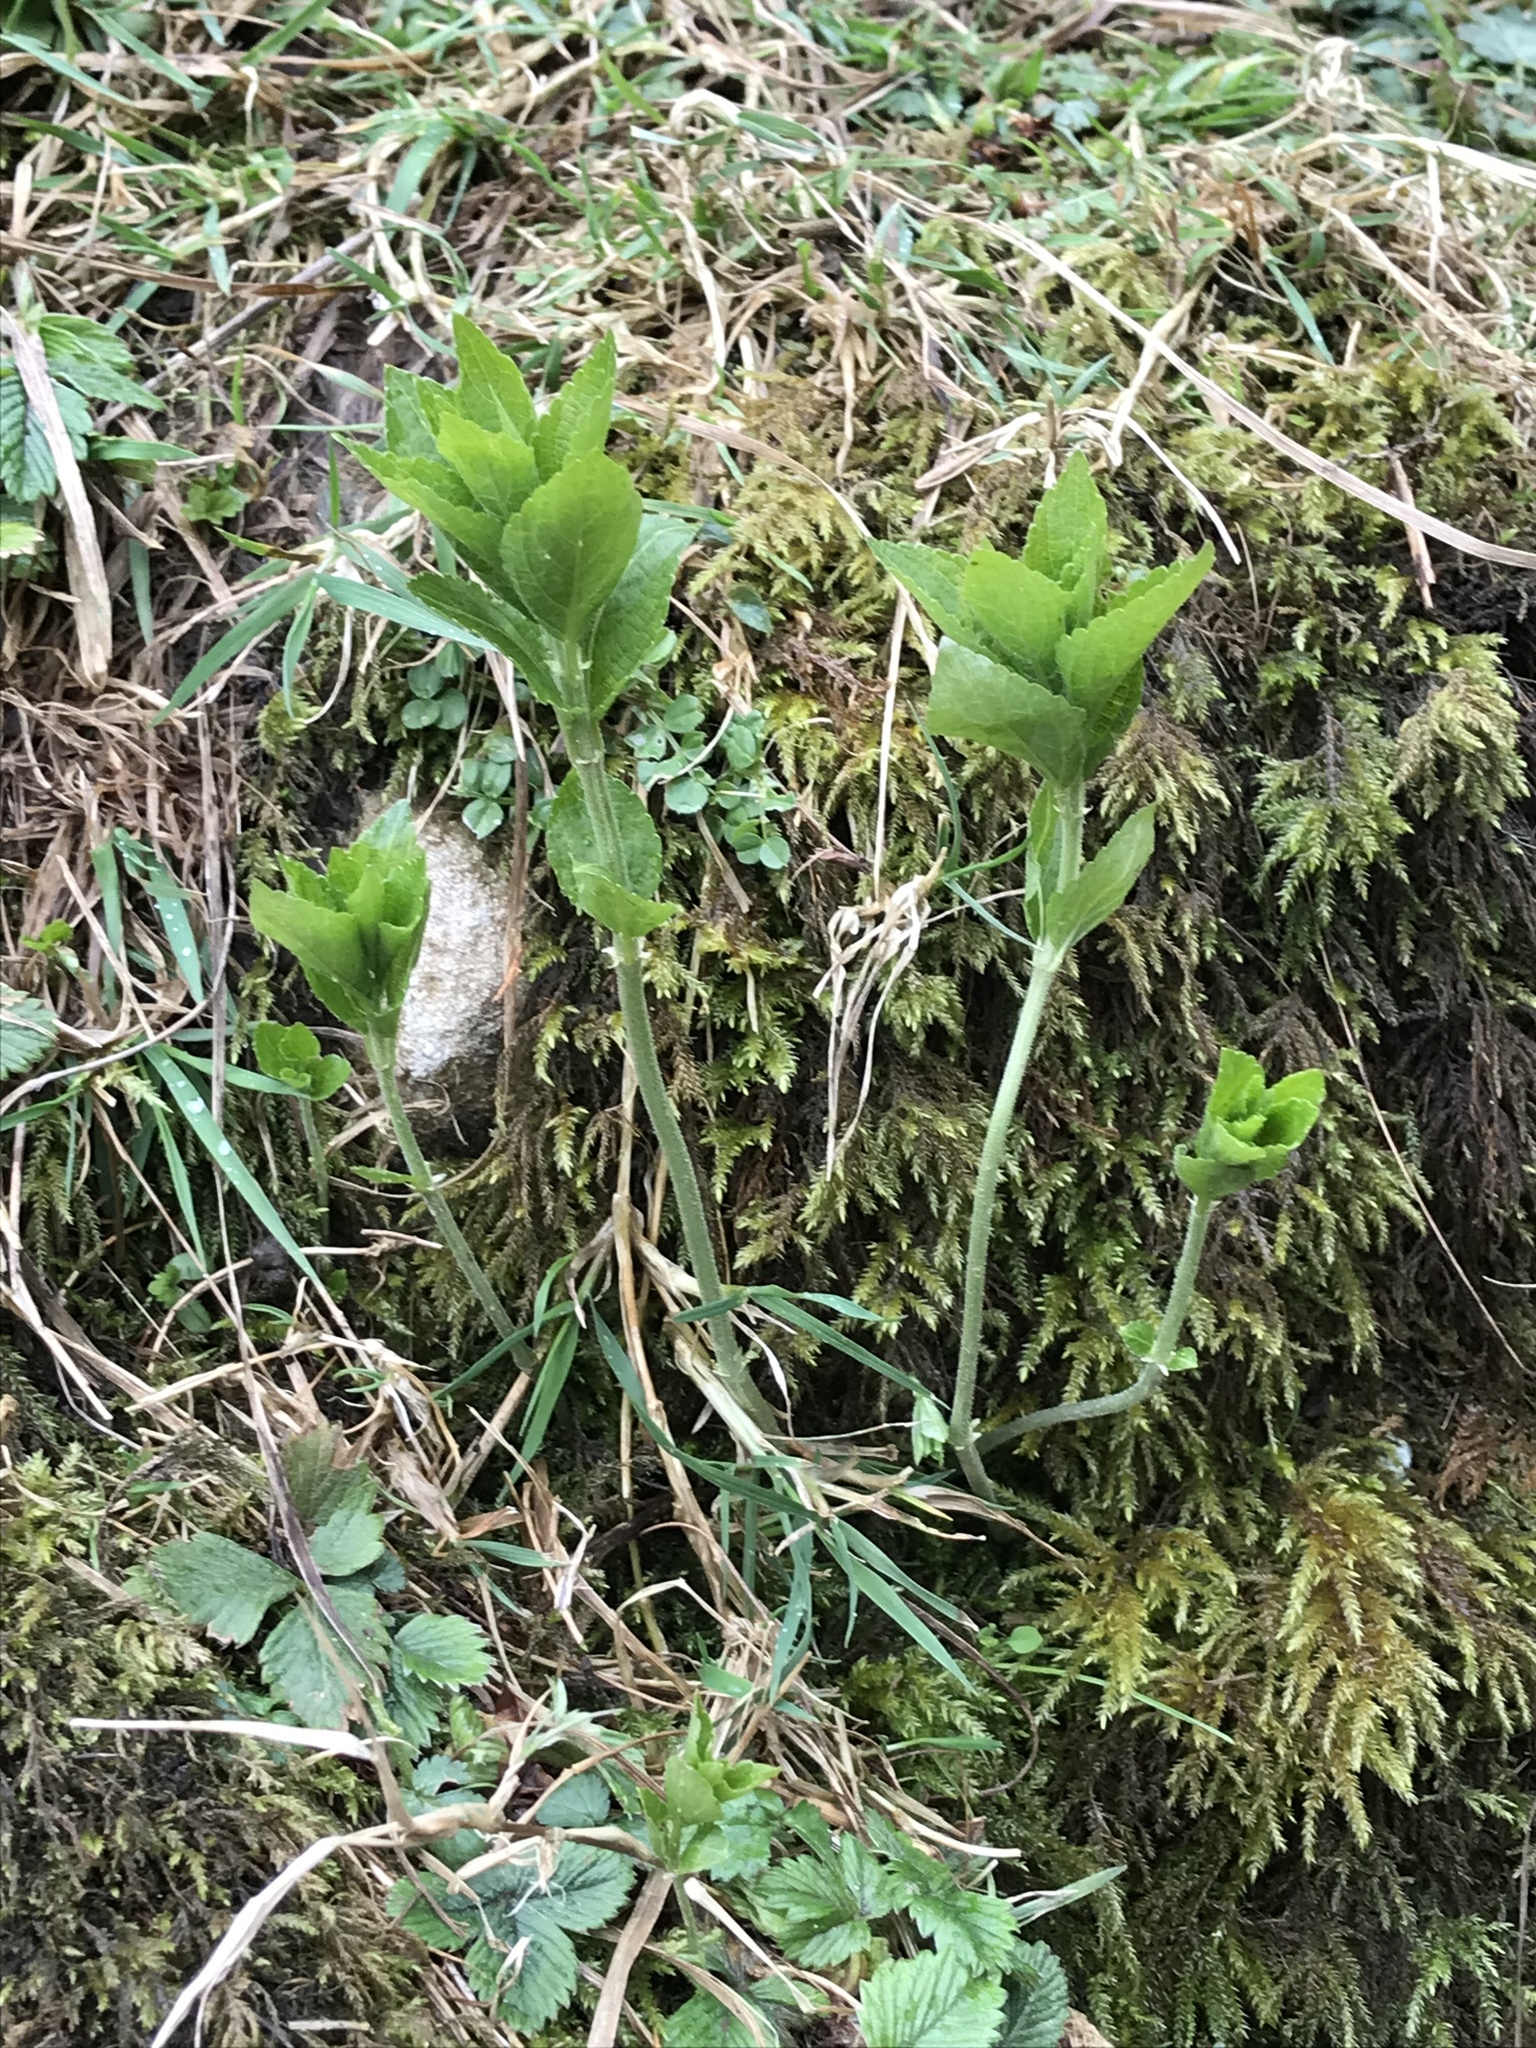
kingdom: Plantae
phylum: Tracheophyta
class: Magnoliopsida
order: Malpighiales
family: Euphorbiaceae
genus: Mercurialis
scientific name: Mercurialis perennis
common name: Dog mercury
